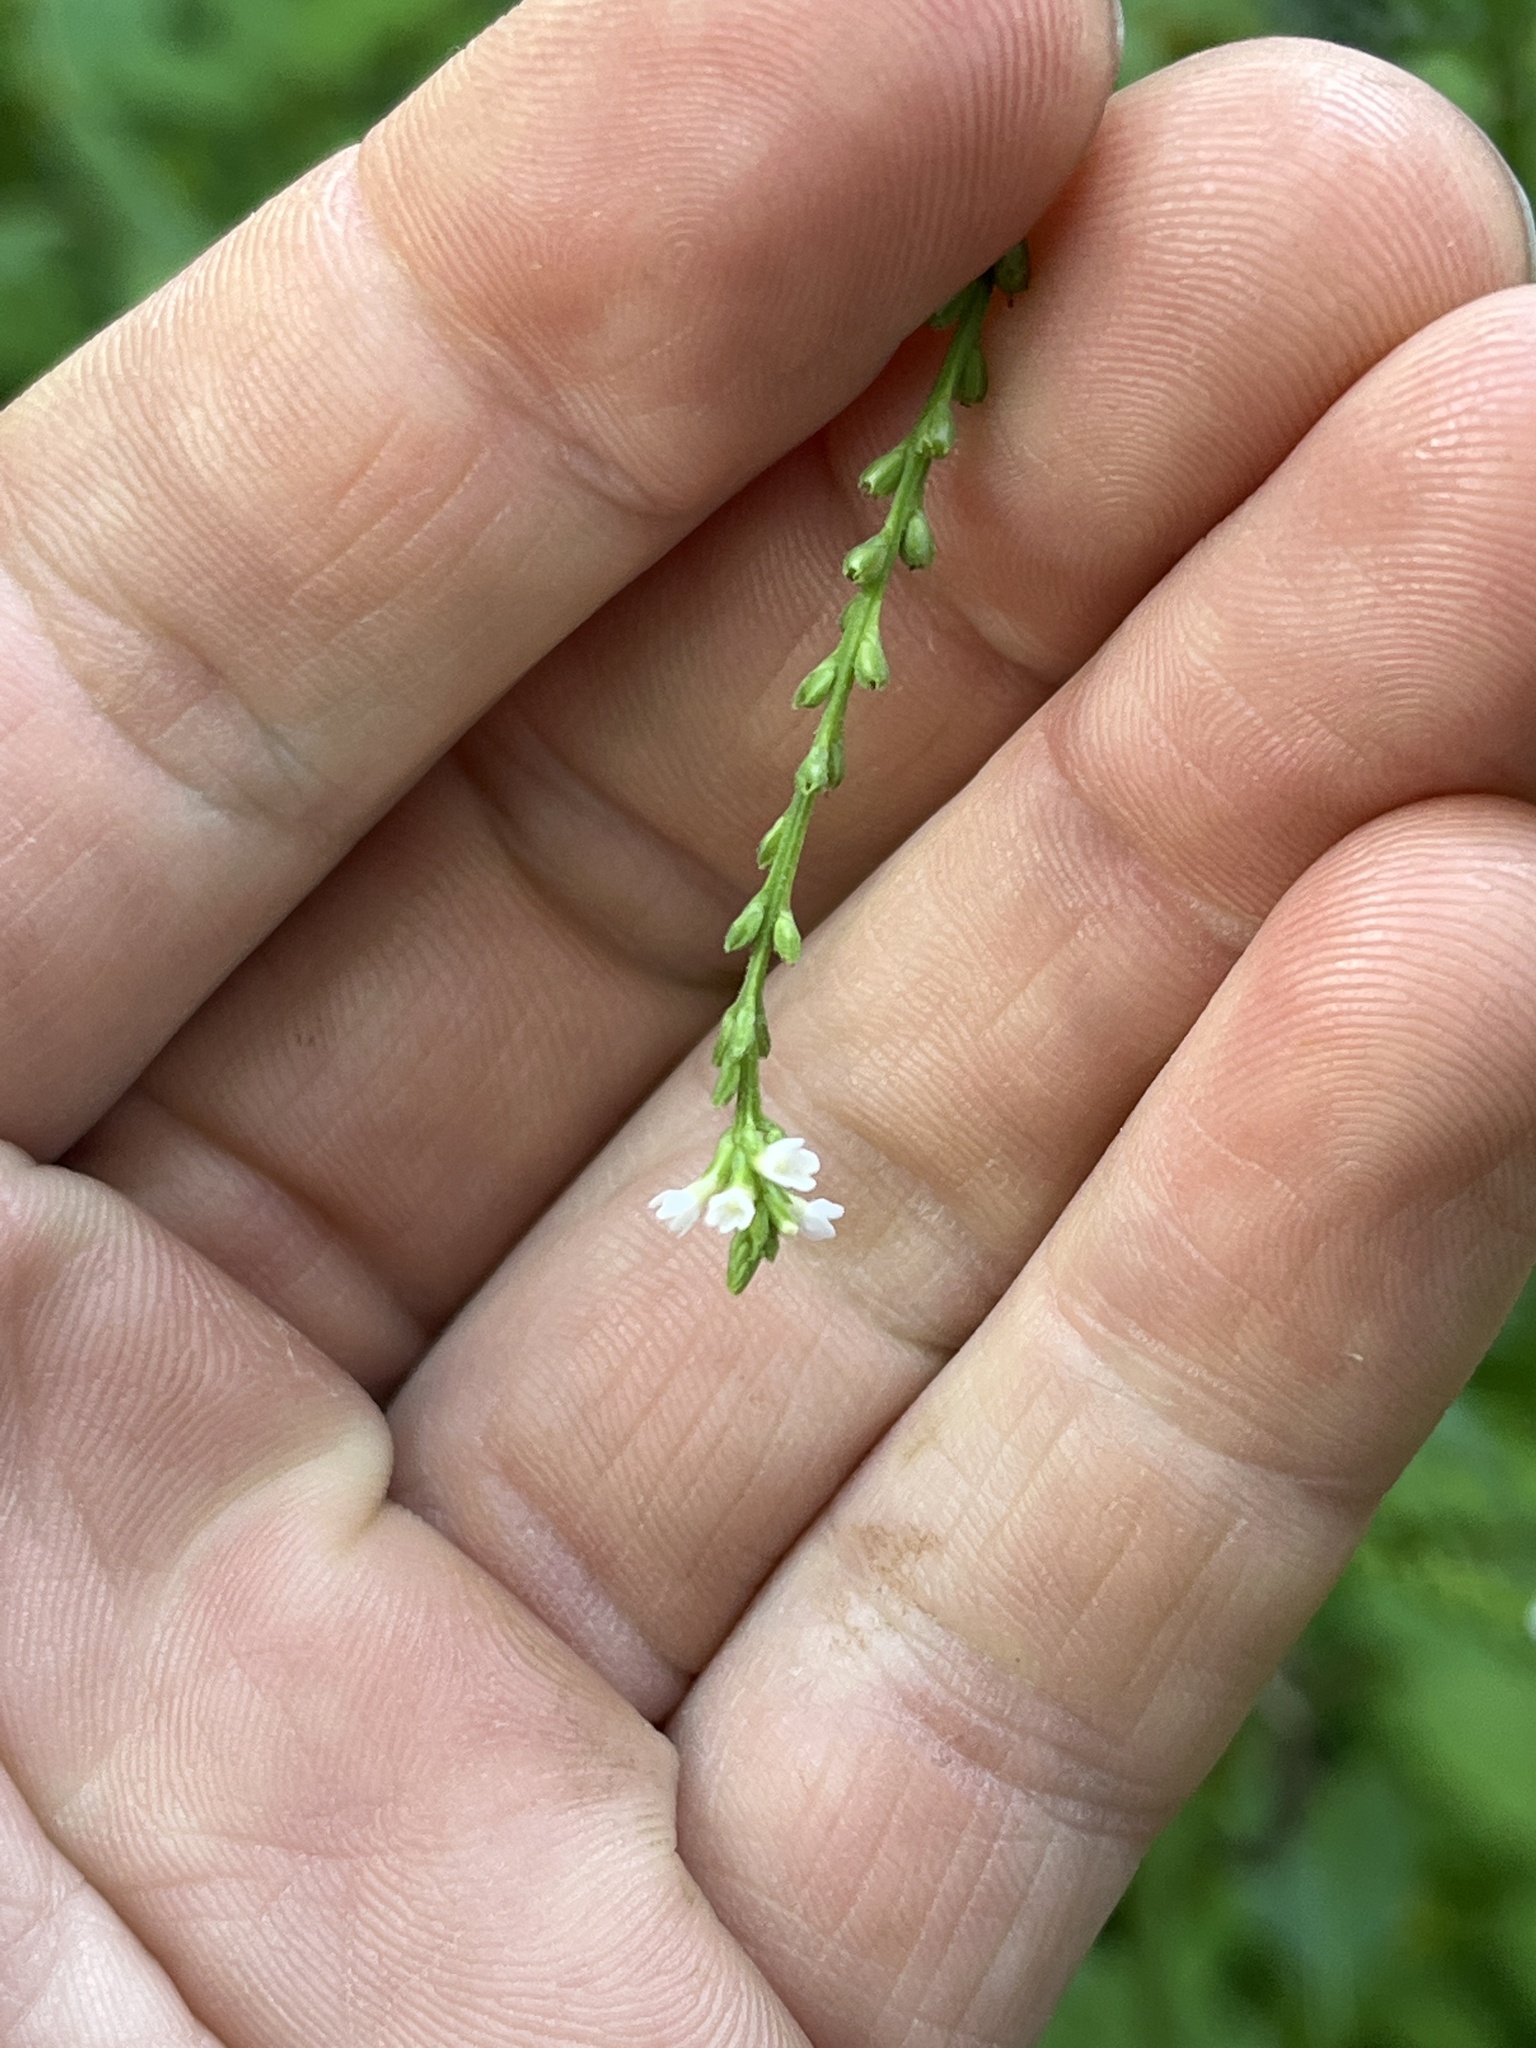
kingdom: Plantae
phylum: Tracheophyta
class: Magnoliopsida
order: Lamiales
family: Verbenaceae
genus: Verbena
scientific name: Verbena urticifolia
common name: Nettle-leaved vervain
